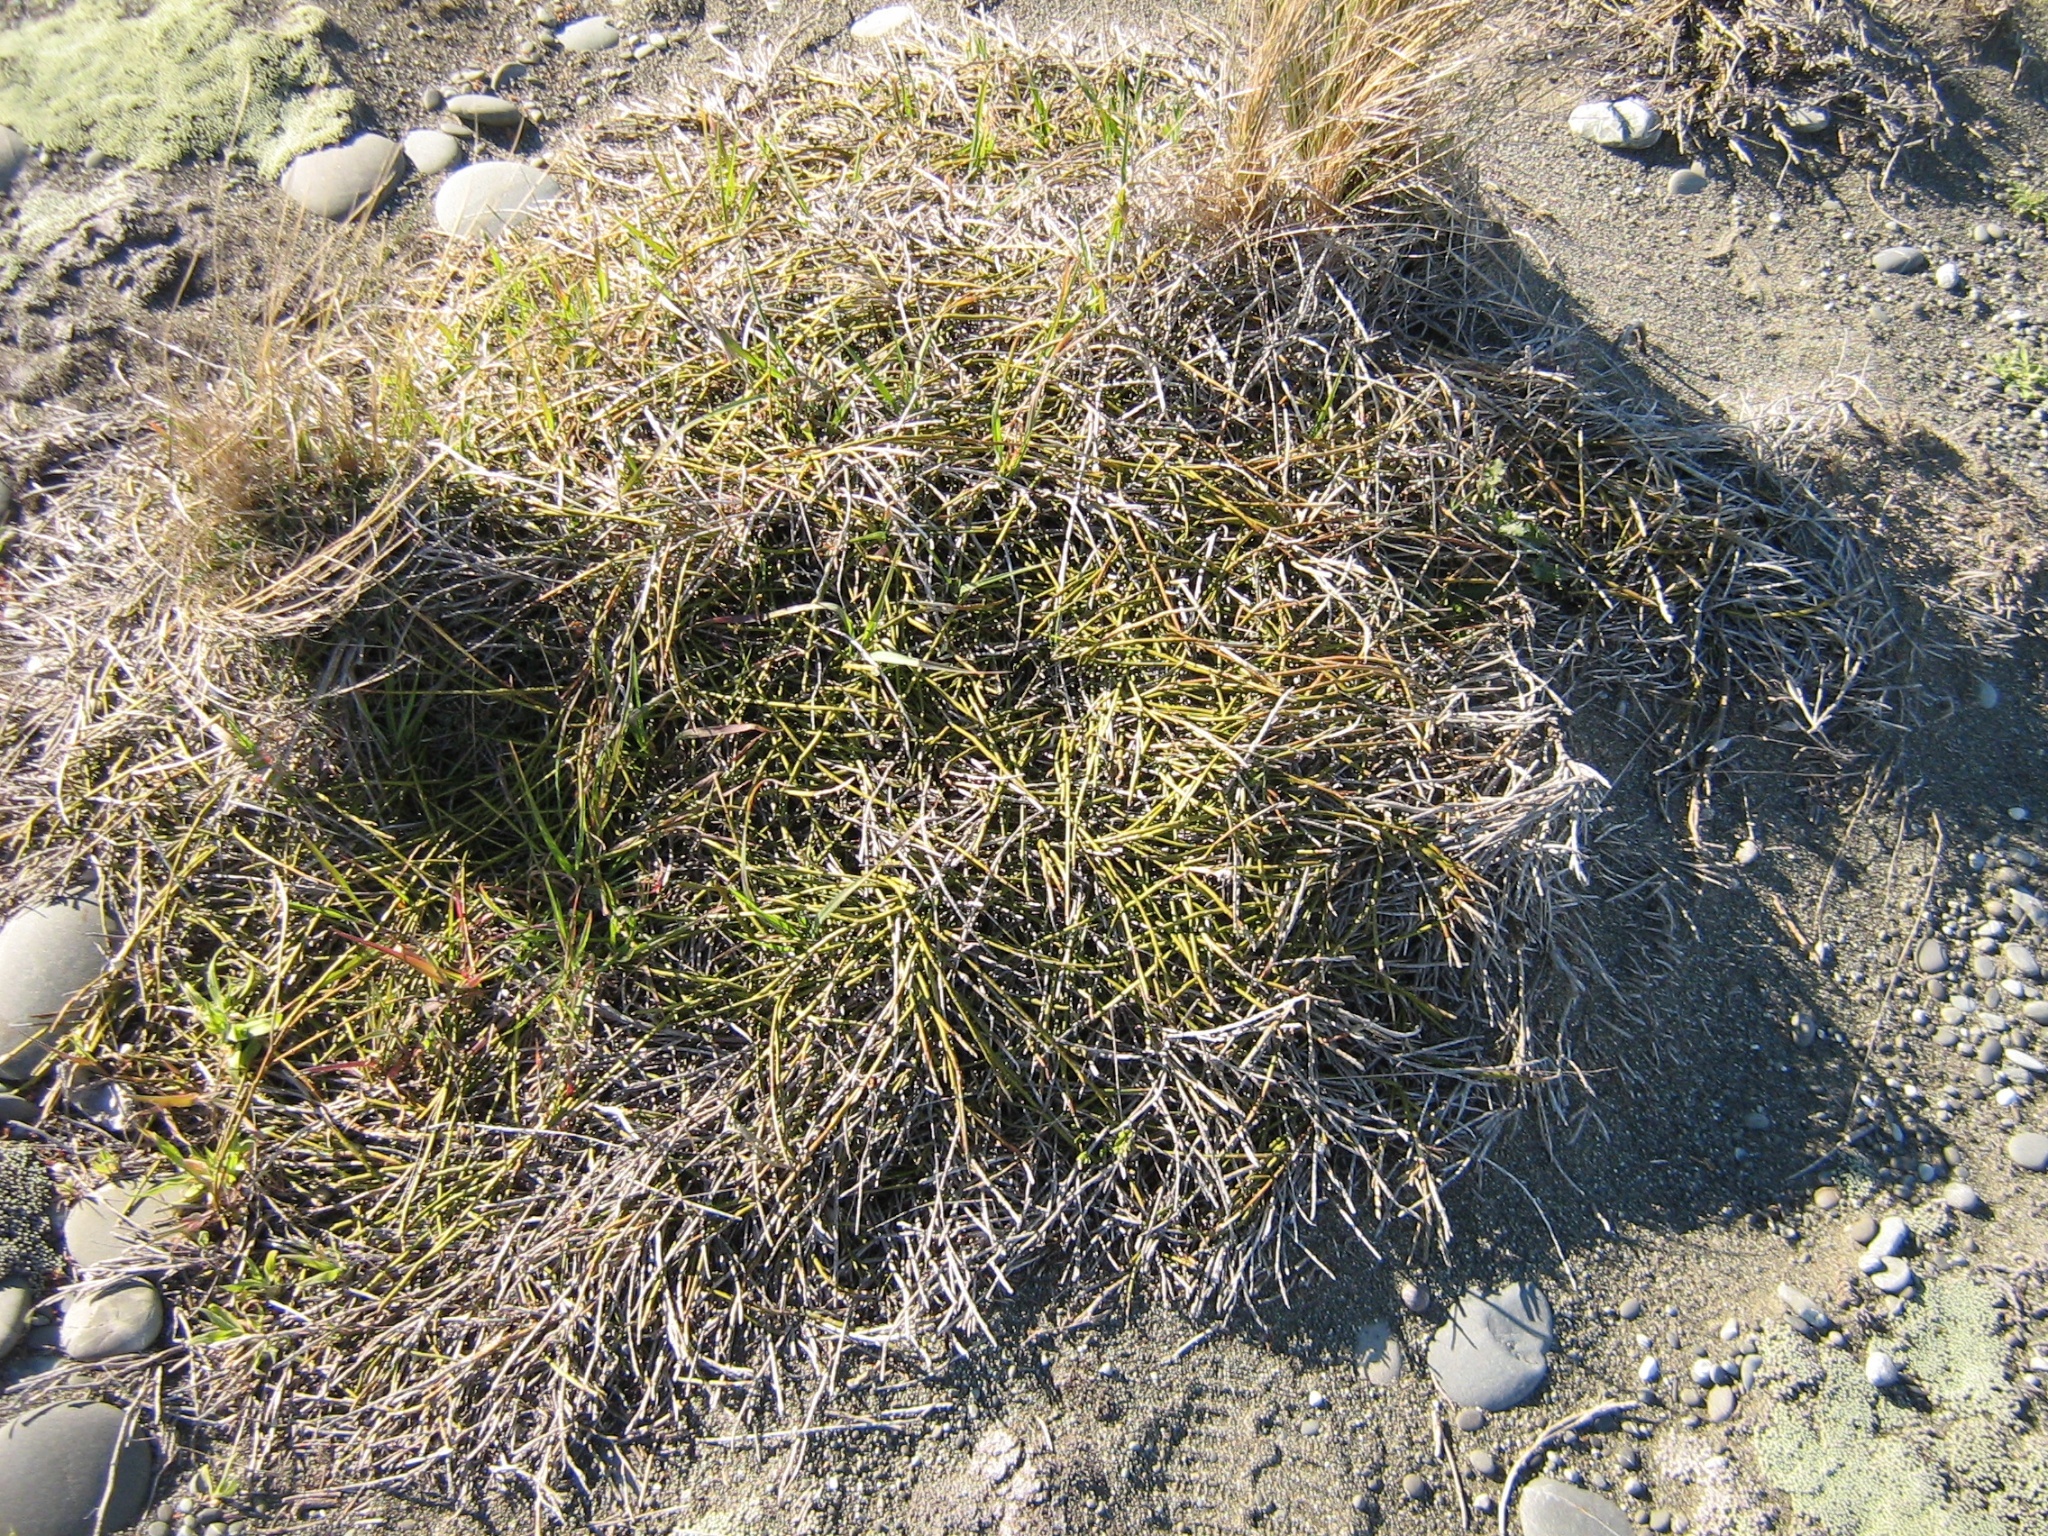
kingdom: Plantae
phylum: Tracheophyta
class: Magnoliopsida
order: Fabales
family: Fabaceae
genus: Carmichaelia
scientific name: Carmichaelia appressa
